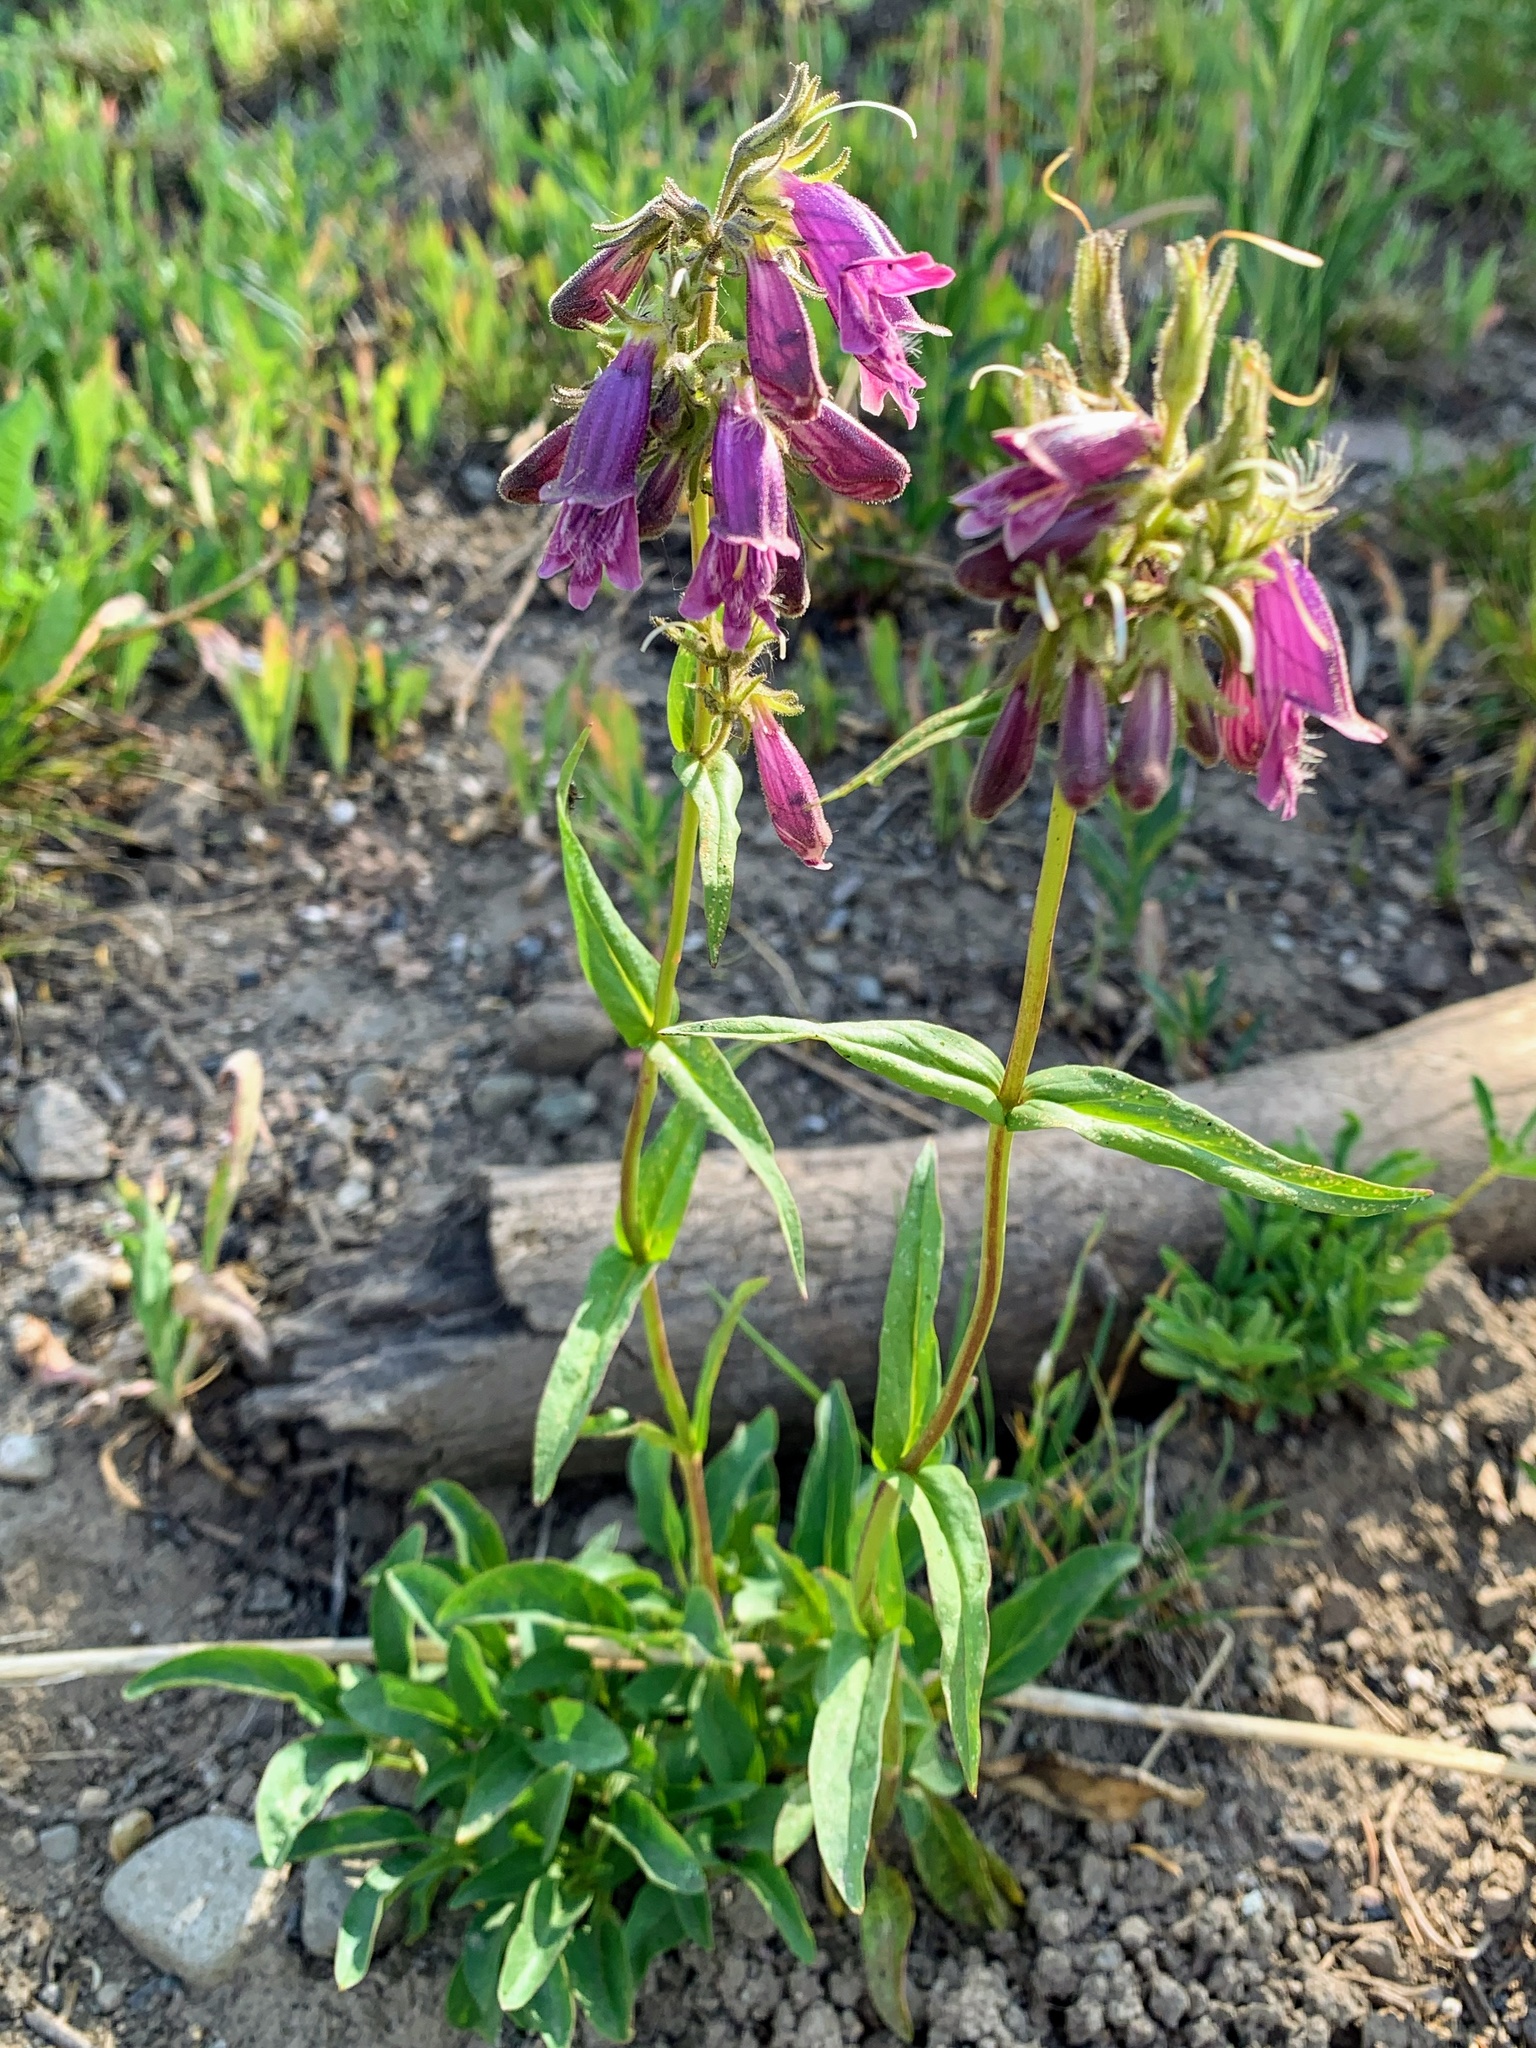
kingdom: Plantae
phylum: Tracheophyta
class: Magnoliopsida
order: Lamiales
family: Plantaginaceae
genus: Penstemon
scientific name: Penstemon whippleanus
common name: Whipple's penstemon
